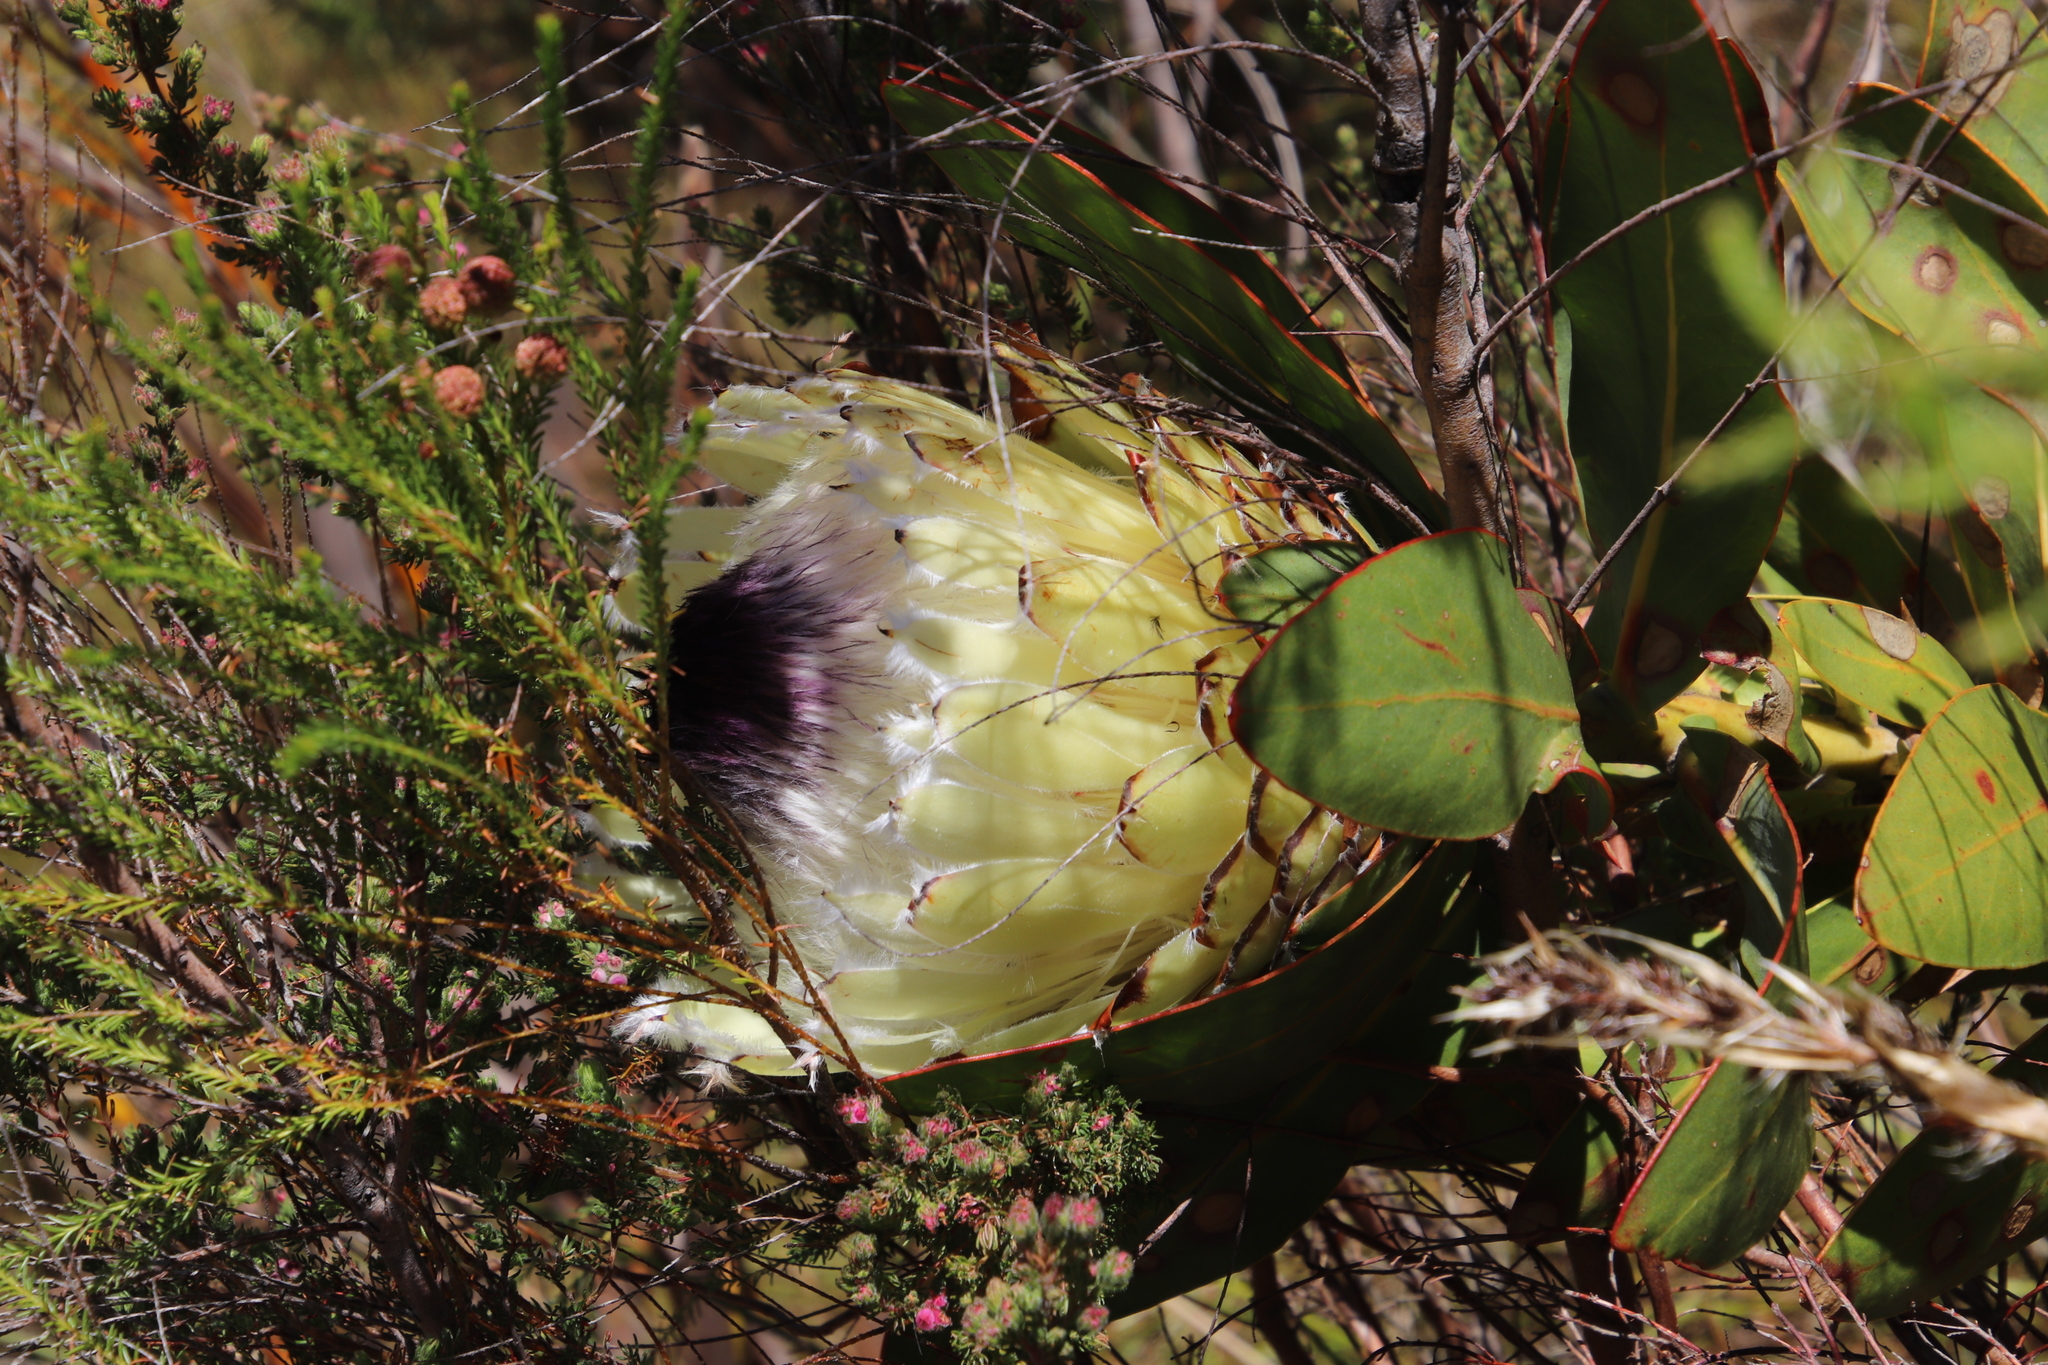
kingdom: Plantae
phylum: Tracheophyta
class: Magnoliopsida
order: Proteales
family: Proteaceae
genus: Protea
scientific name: Protea magnifica
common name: Bearded sugarbush
